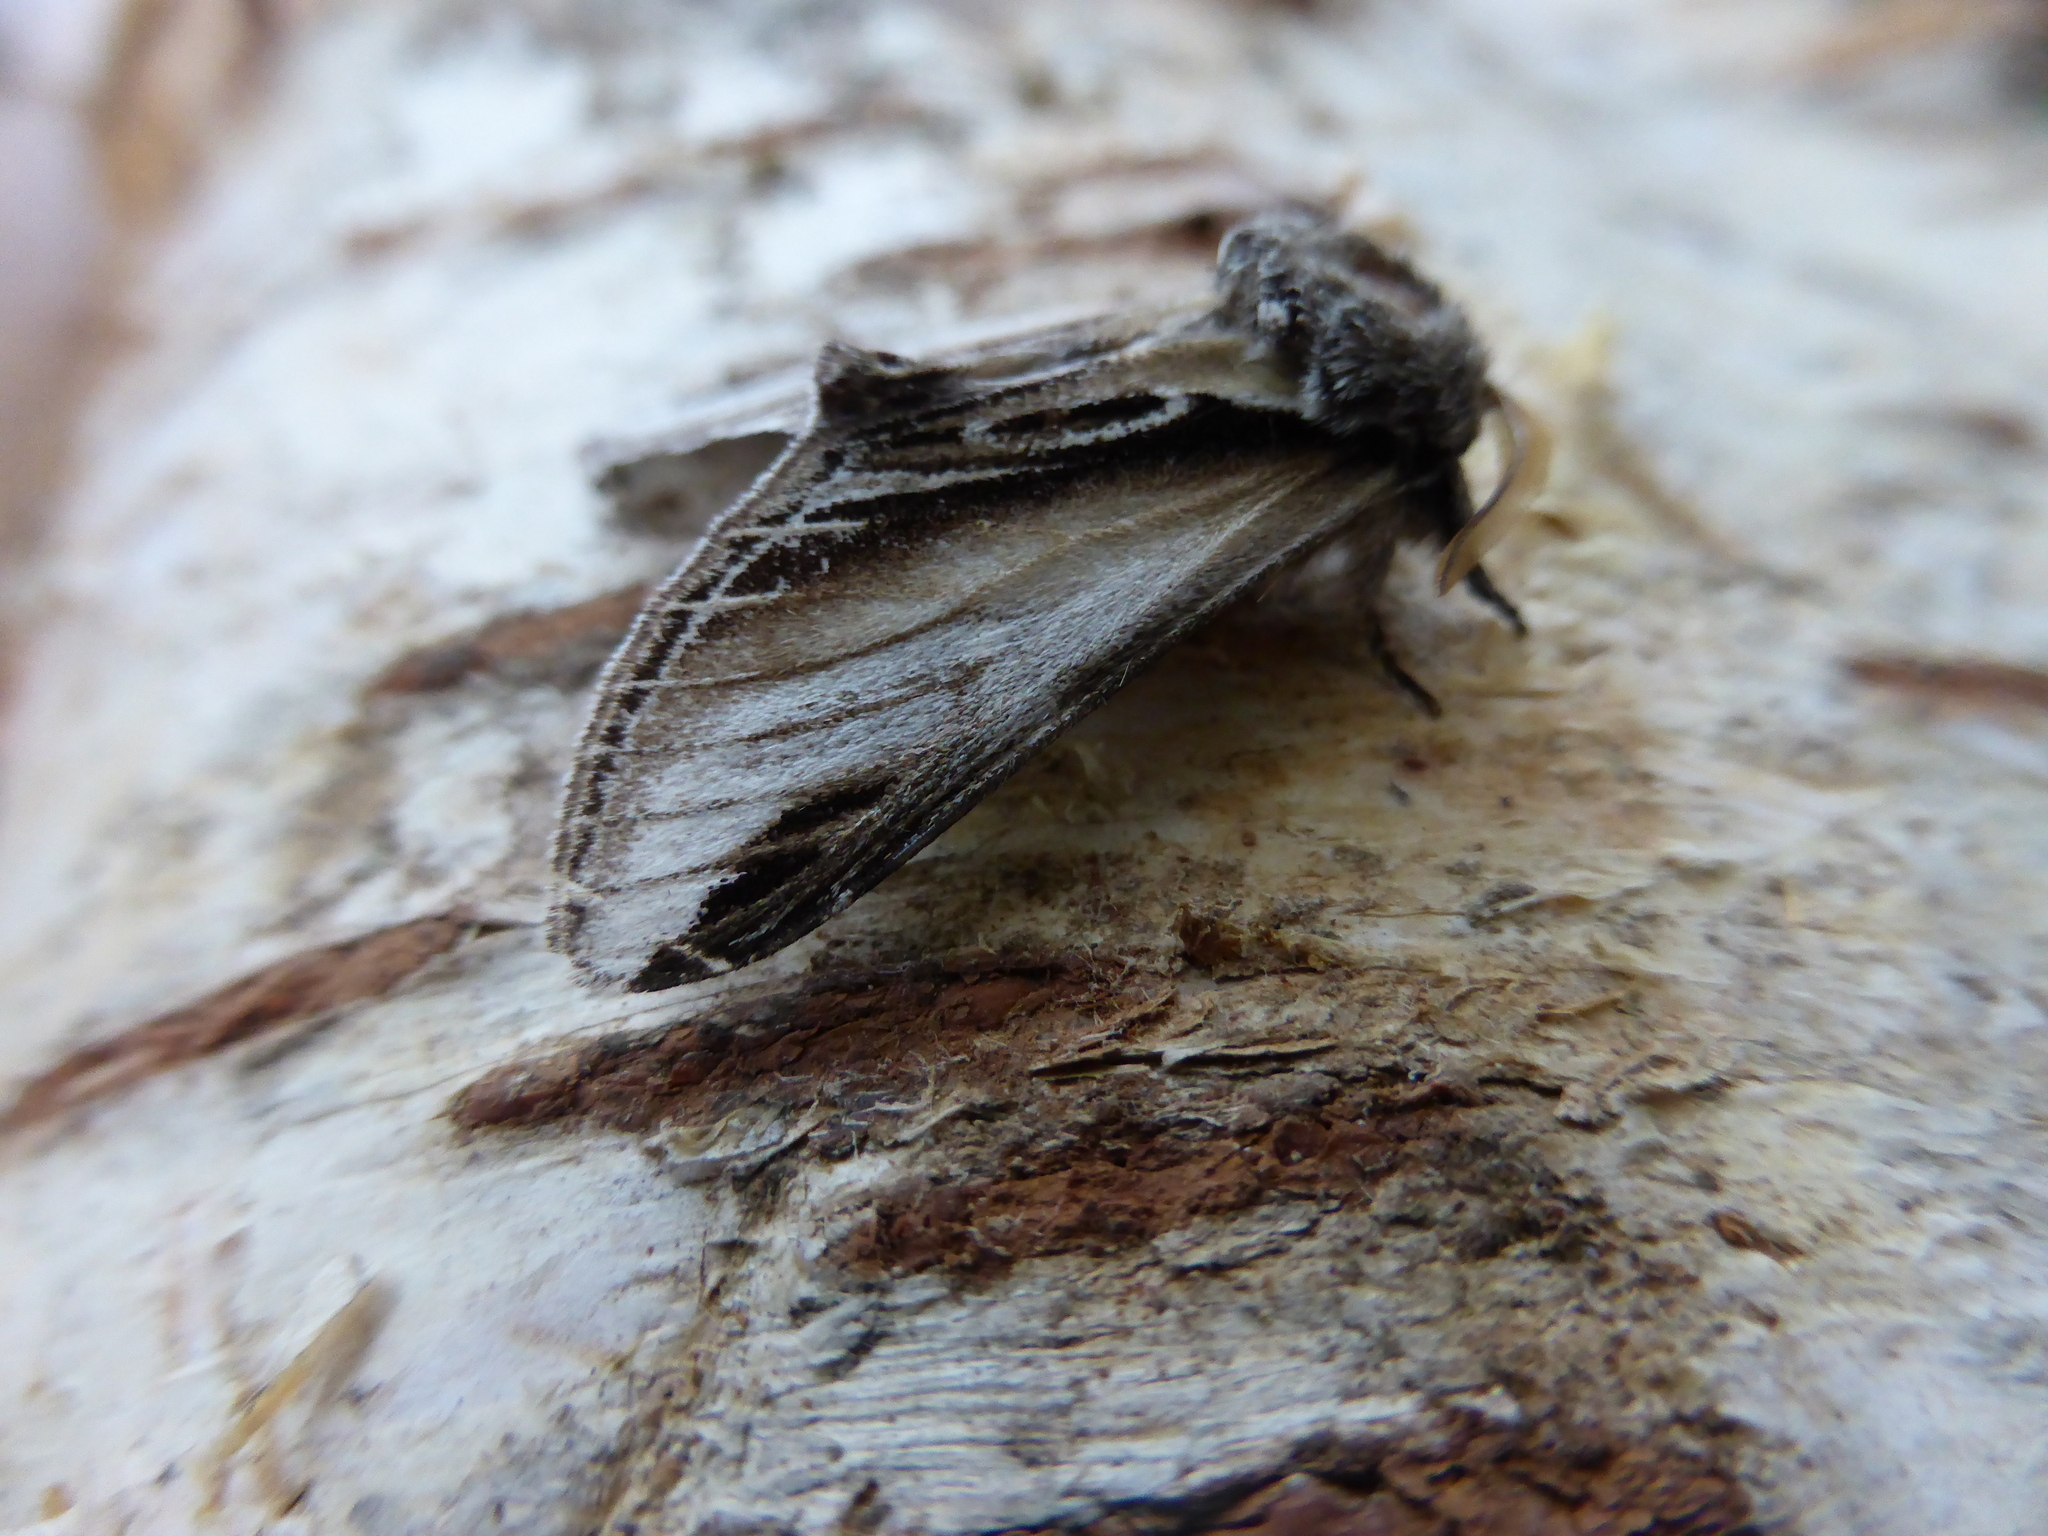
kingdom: Animalia
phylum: Arthropoda
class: Insecta
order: Lepidoptera
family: Notodontidae
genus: Pheosia
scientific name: Pheosia tremula
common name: Swallow prominent
